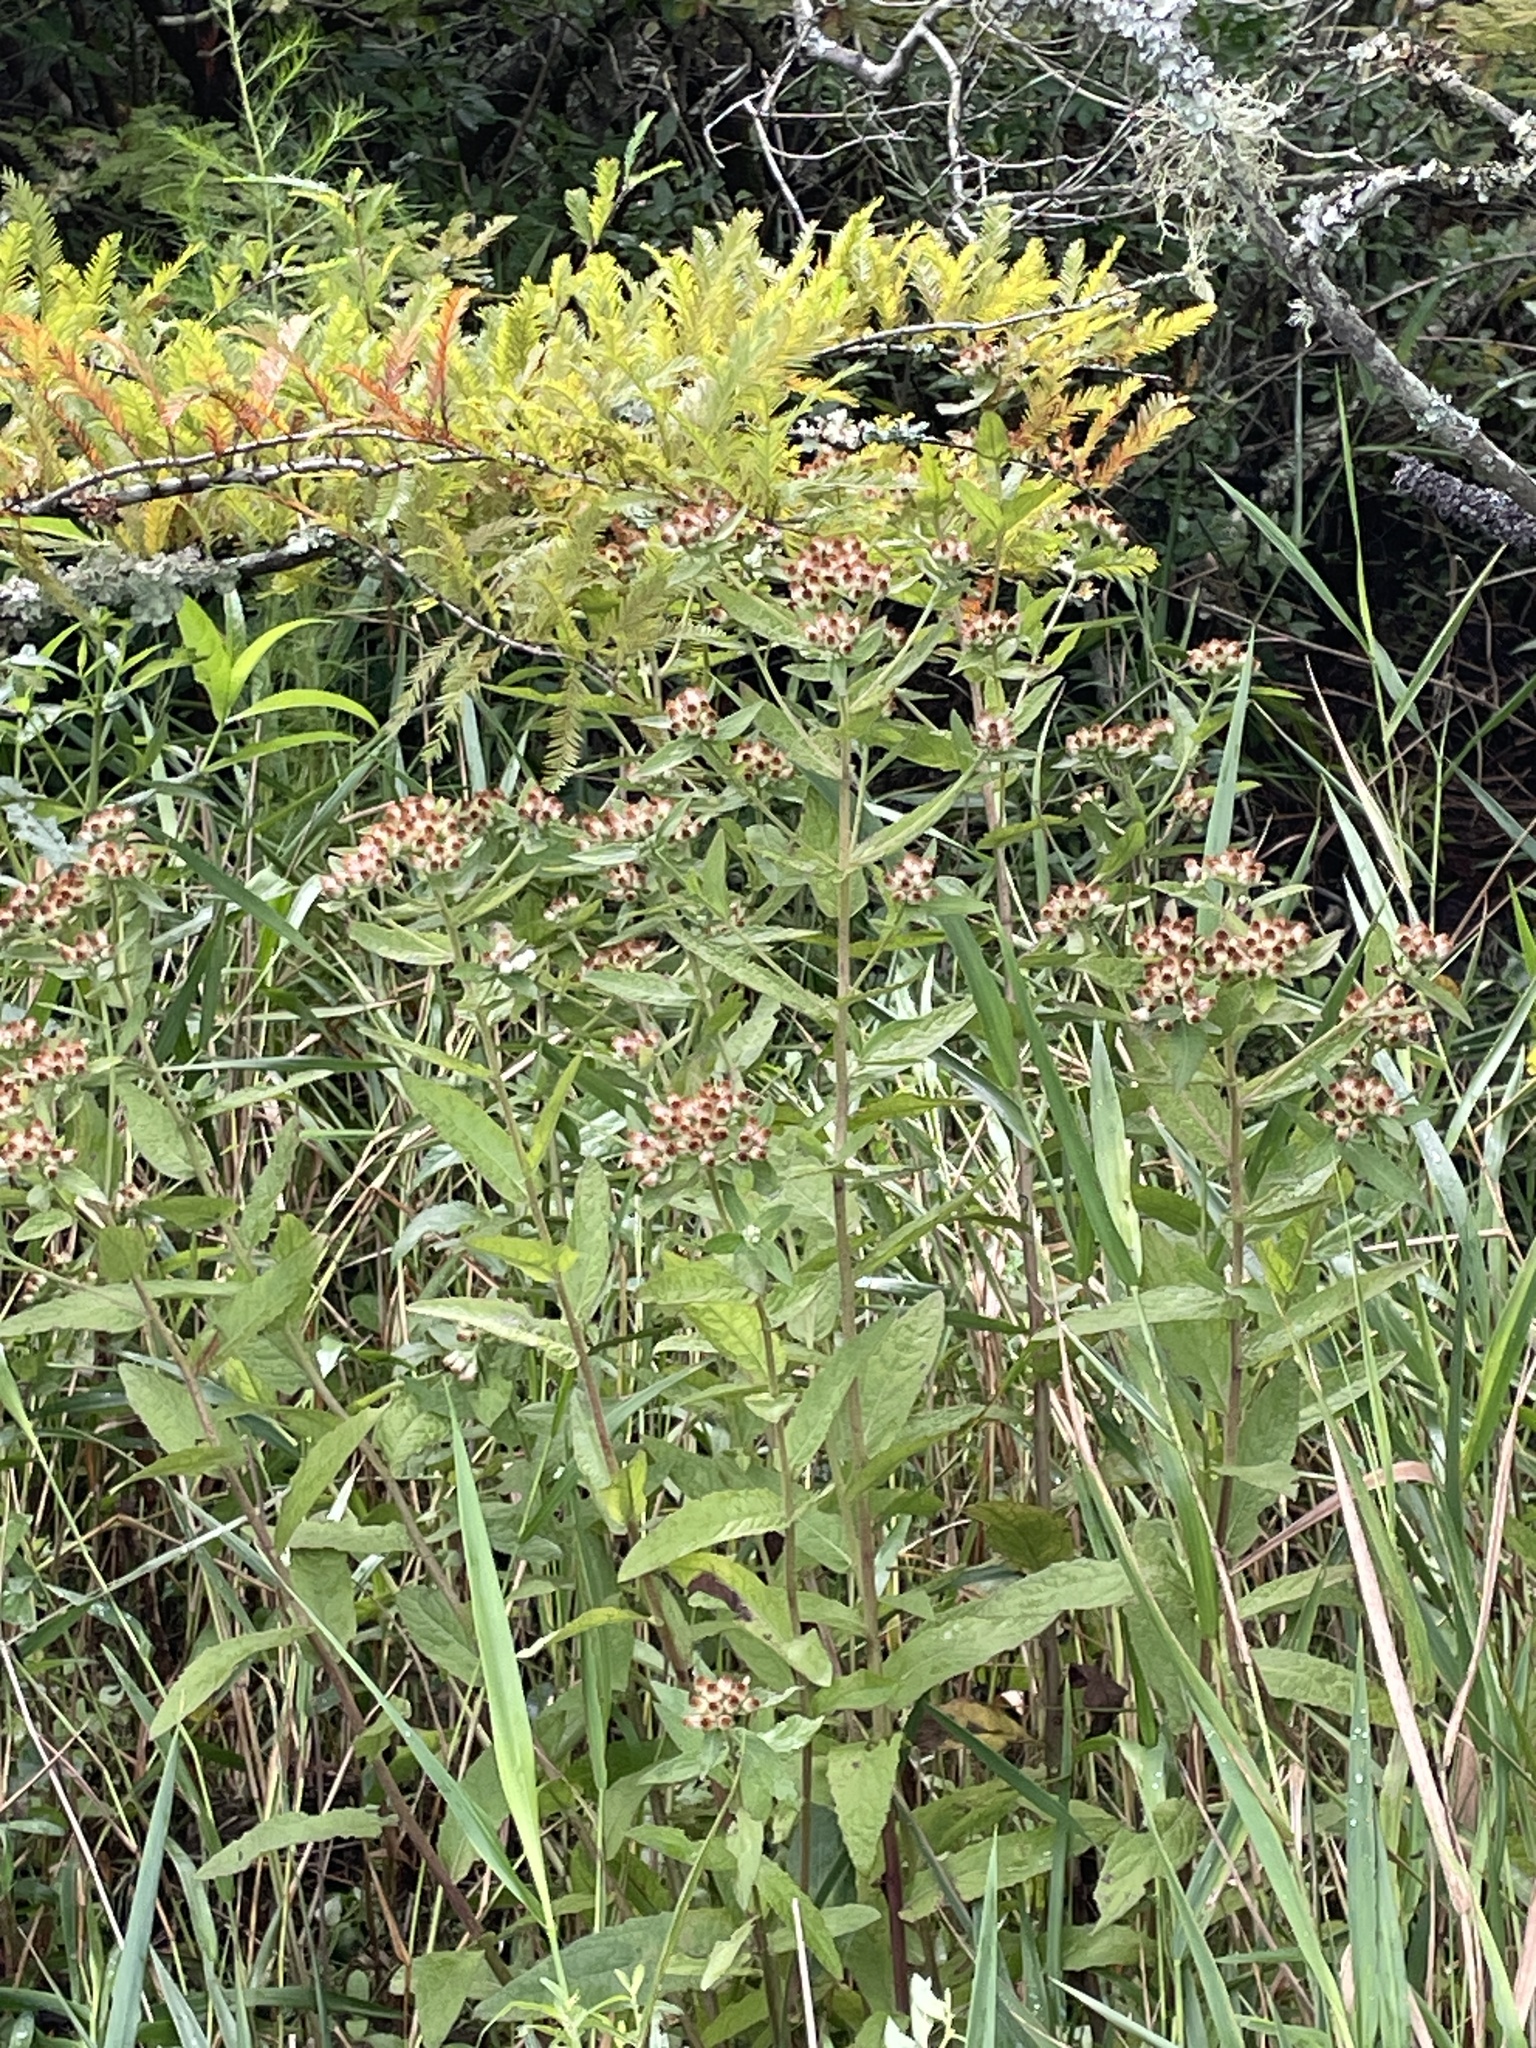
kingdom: Plantae
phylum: Tracheophyta
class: Magnoliopsida
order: Asterales
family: Asteraceae
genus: Pluchea
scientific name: Pluchea foetida
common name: Stinking camphorweed
